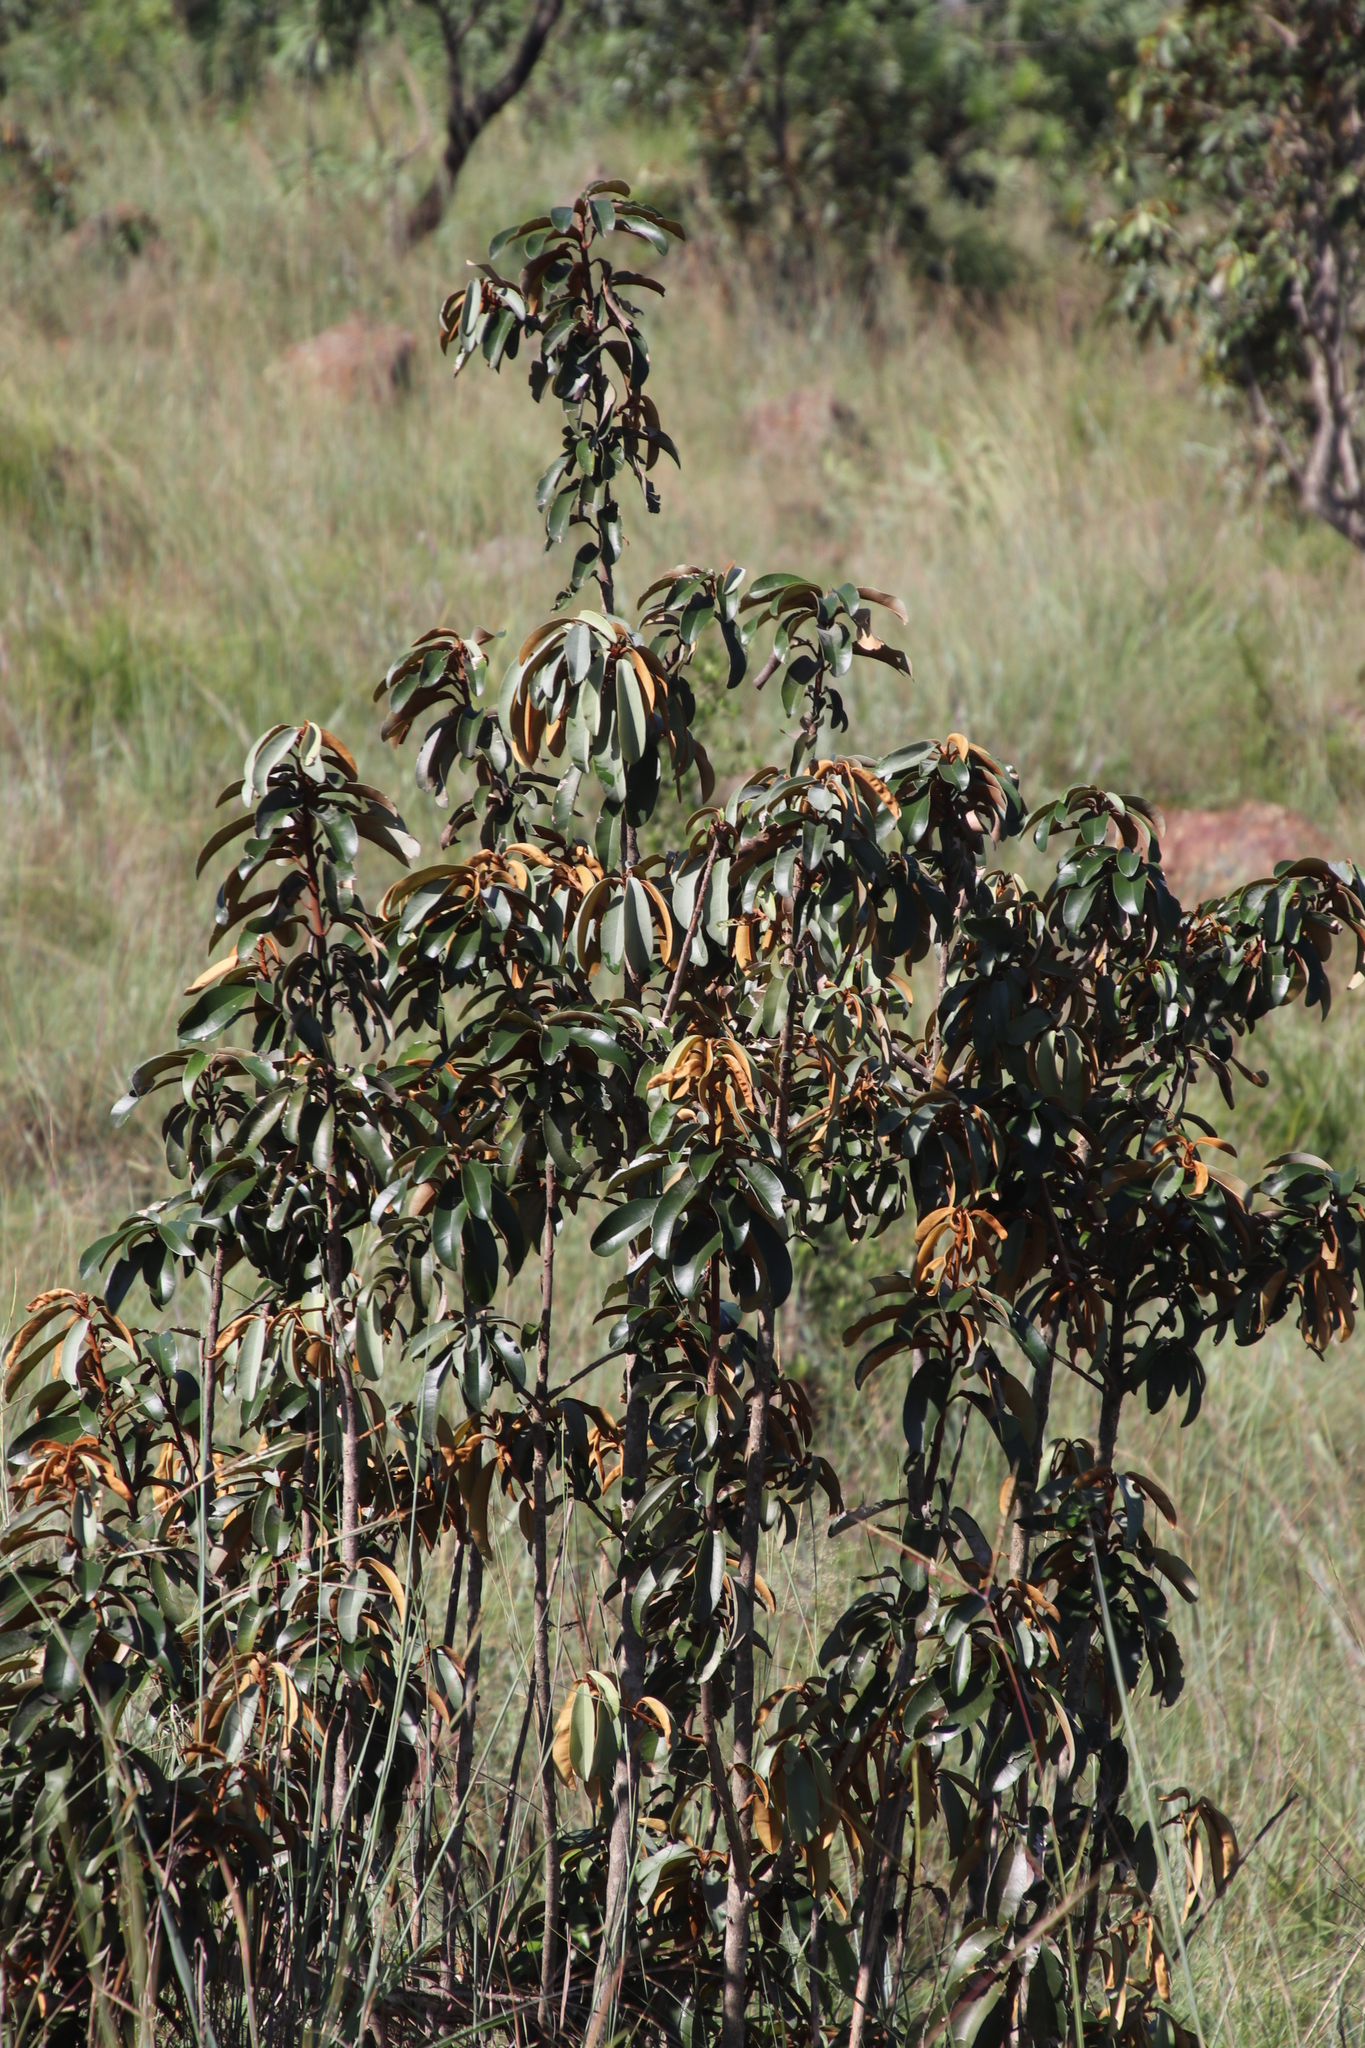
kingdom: Plantae
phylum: Tracheophyta
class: Magnoliopsida
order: Ericales
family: Sapotaceae
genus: Englerophytum
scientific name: Englerophytum magalismontanum
